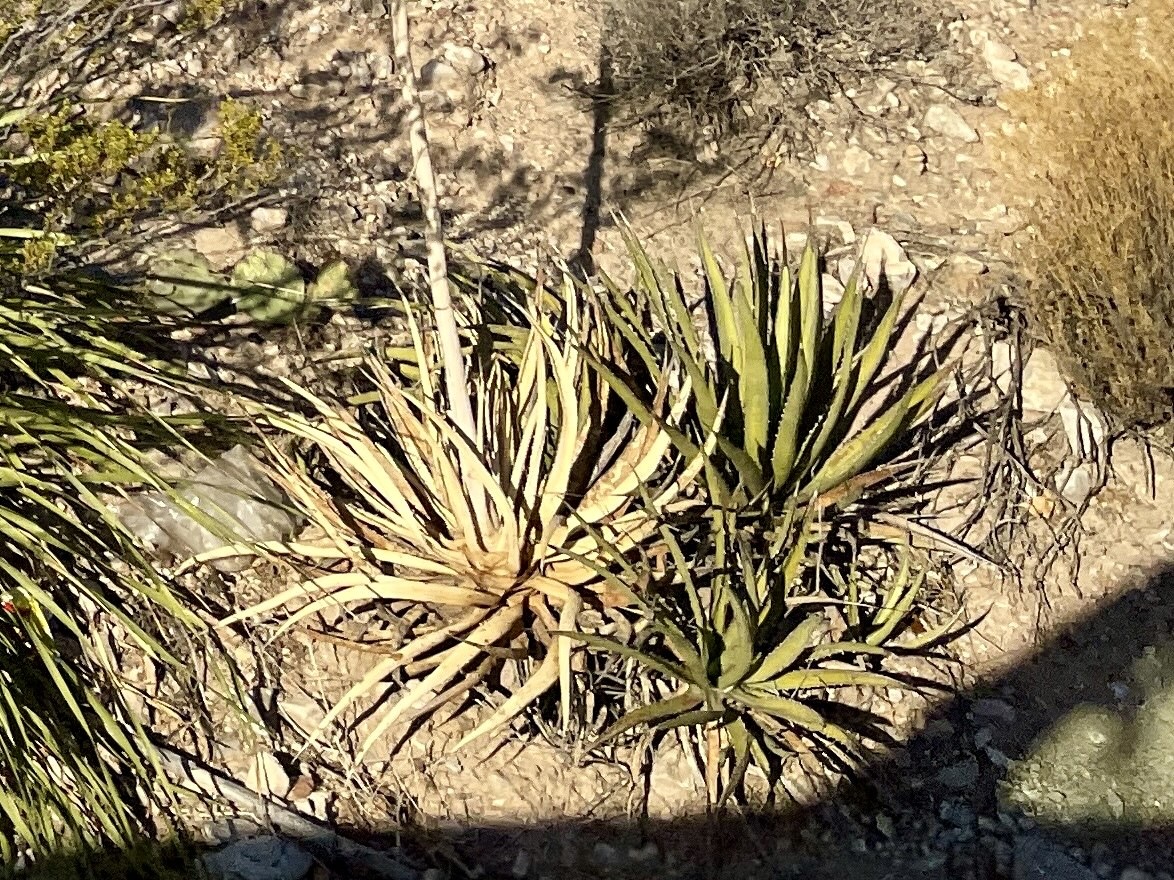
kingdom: Plantae
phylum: Tracheophyta
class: Liliopsida
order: Asparagales
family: Asparagaceae
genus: Agave
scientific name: Agave lechuguilla
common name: Lecheguilla agave
